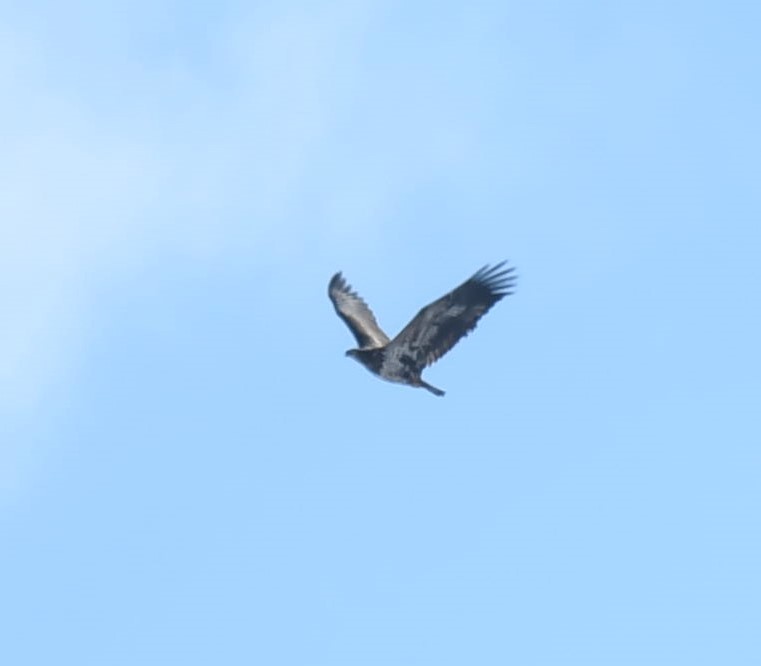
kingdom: Animalia
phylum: Chordata
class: Aves
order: Accipitriformes
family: Accipitridae
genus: Haliaeetus
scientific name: Haliaeetus leucocephalus
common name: Bald eagle
